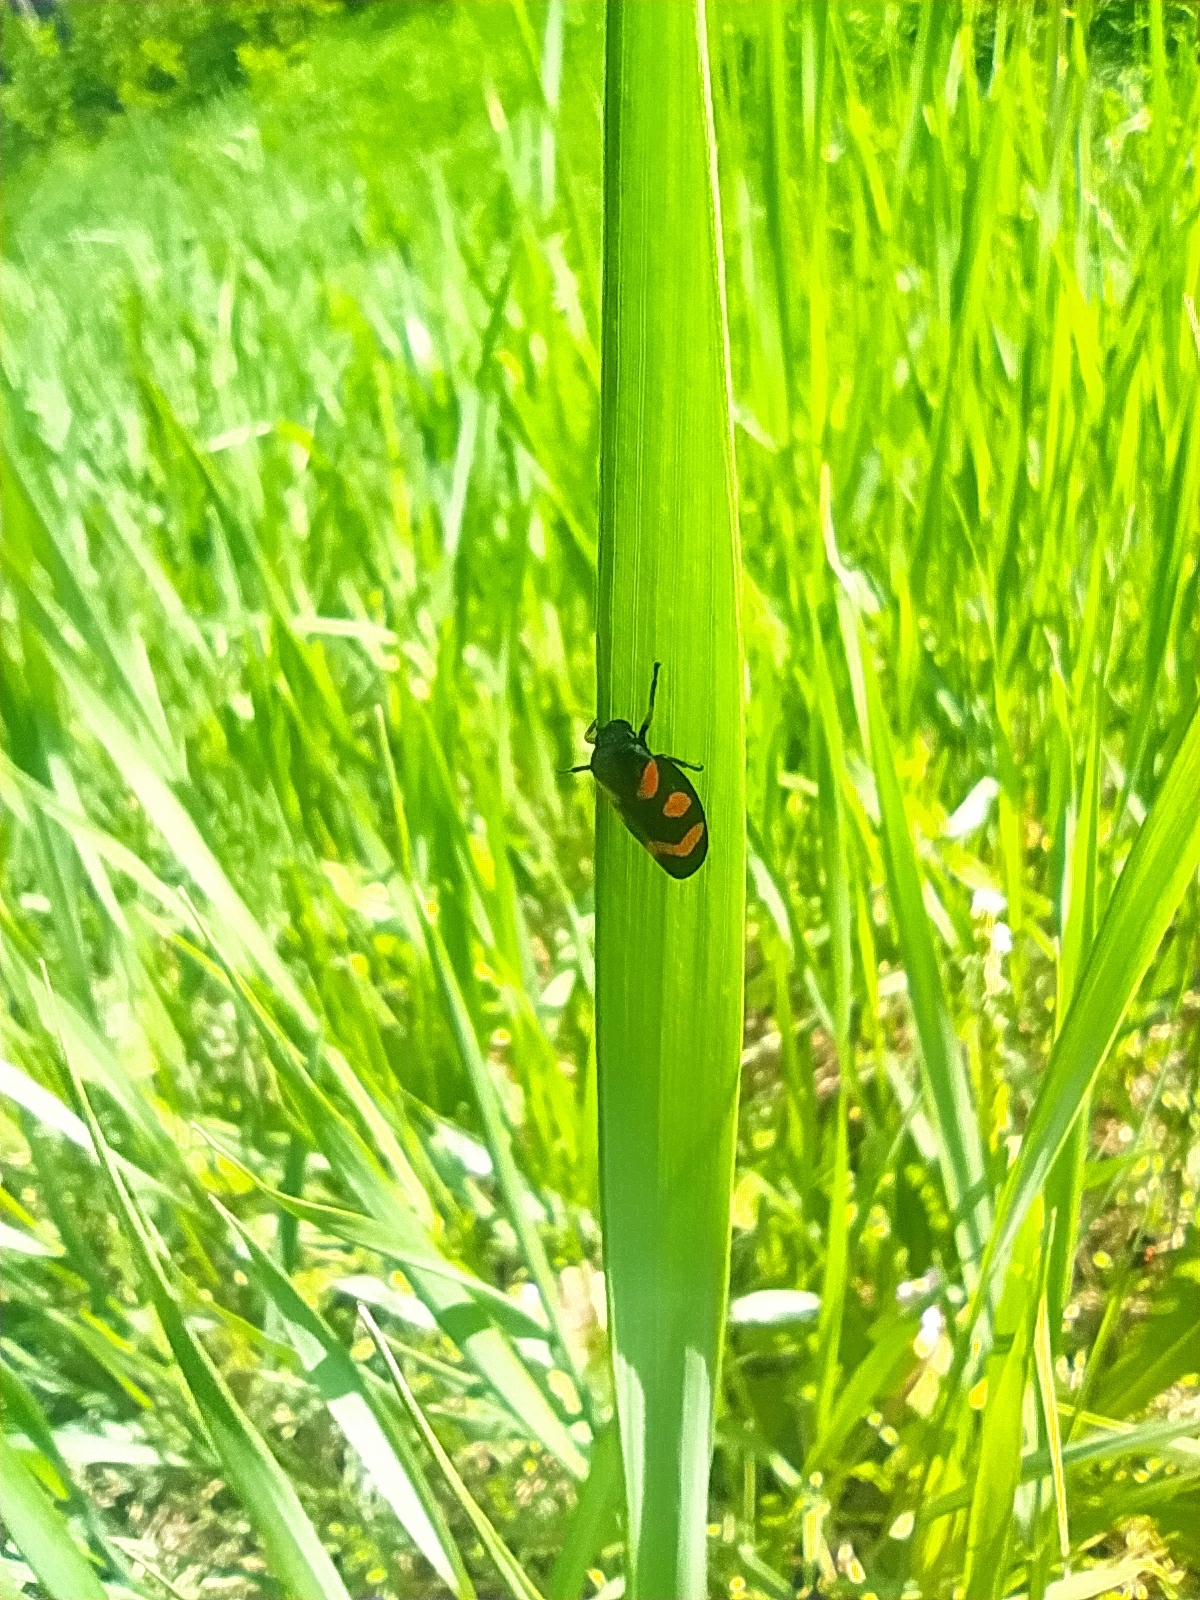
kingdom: Animalia
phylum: Arthropoda
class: Insecta
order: Hemiptera
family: Cercopidae
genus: Cercopis
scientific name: Cercopis intermedia
